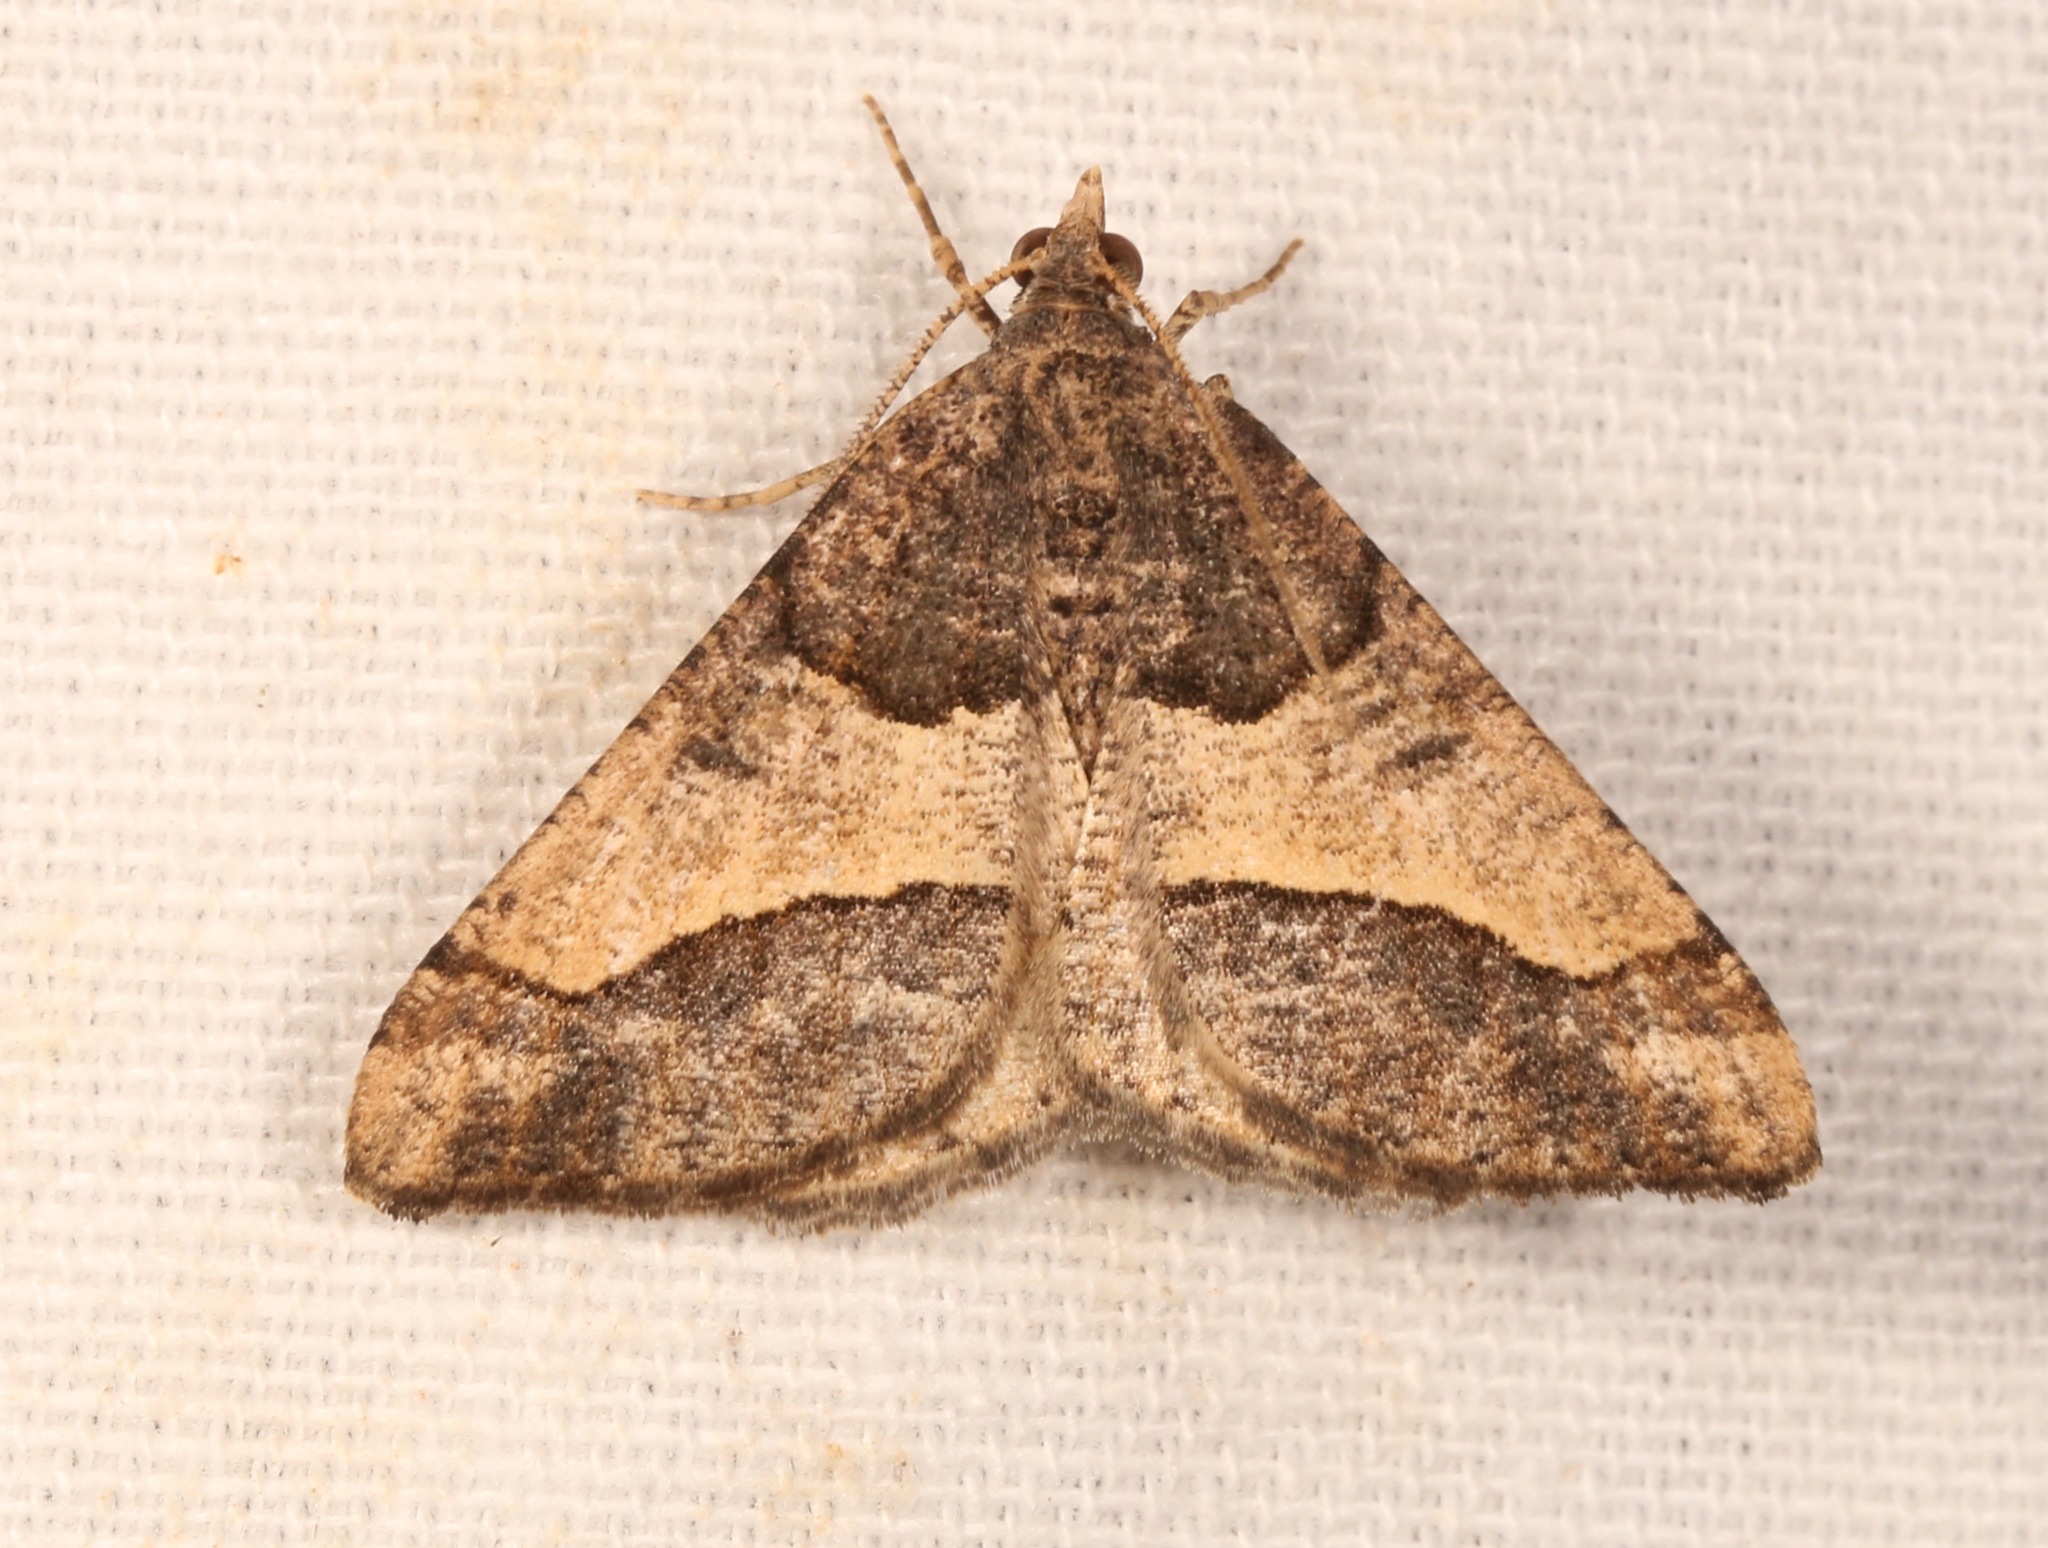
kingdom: Animalia
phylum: Arthropoda
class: Insecta
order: Lepidoptera
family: Geometridae
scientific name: Geometridae
